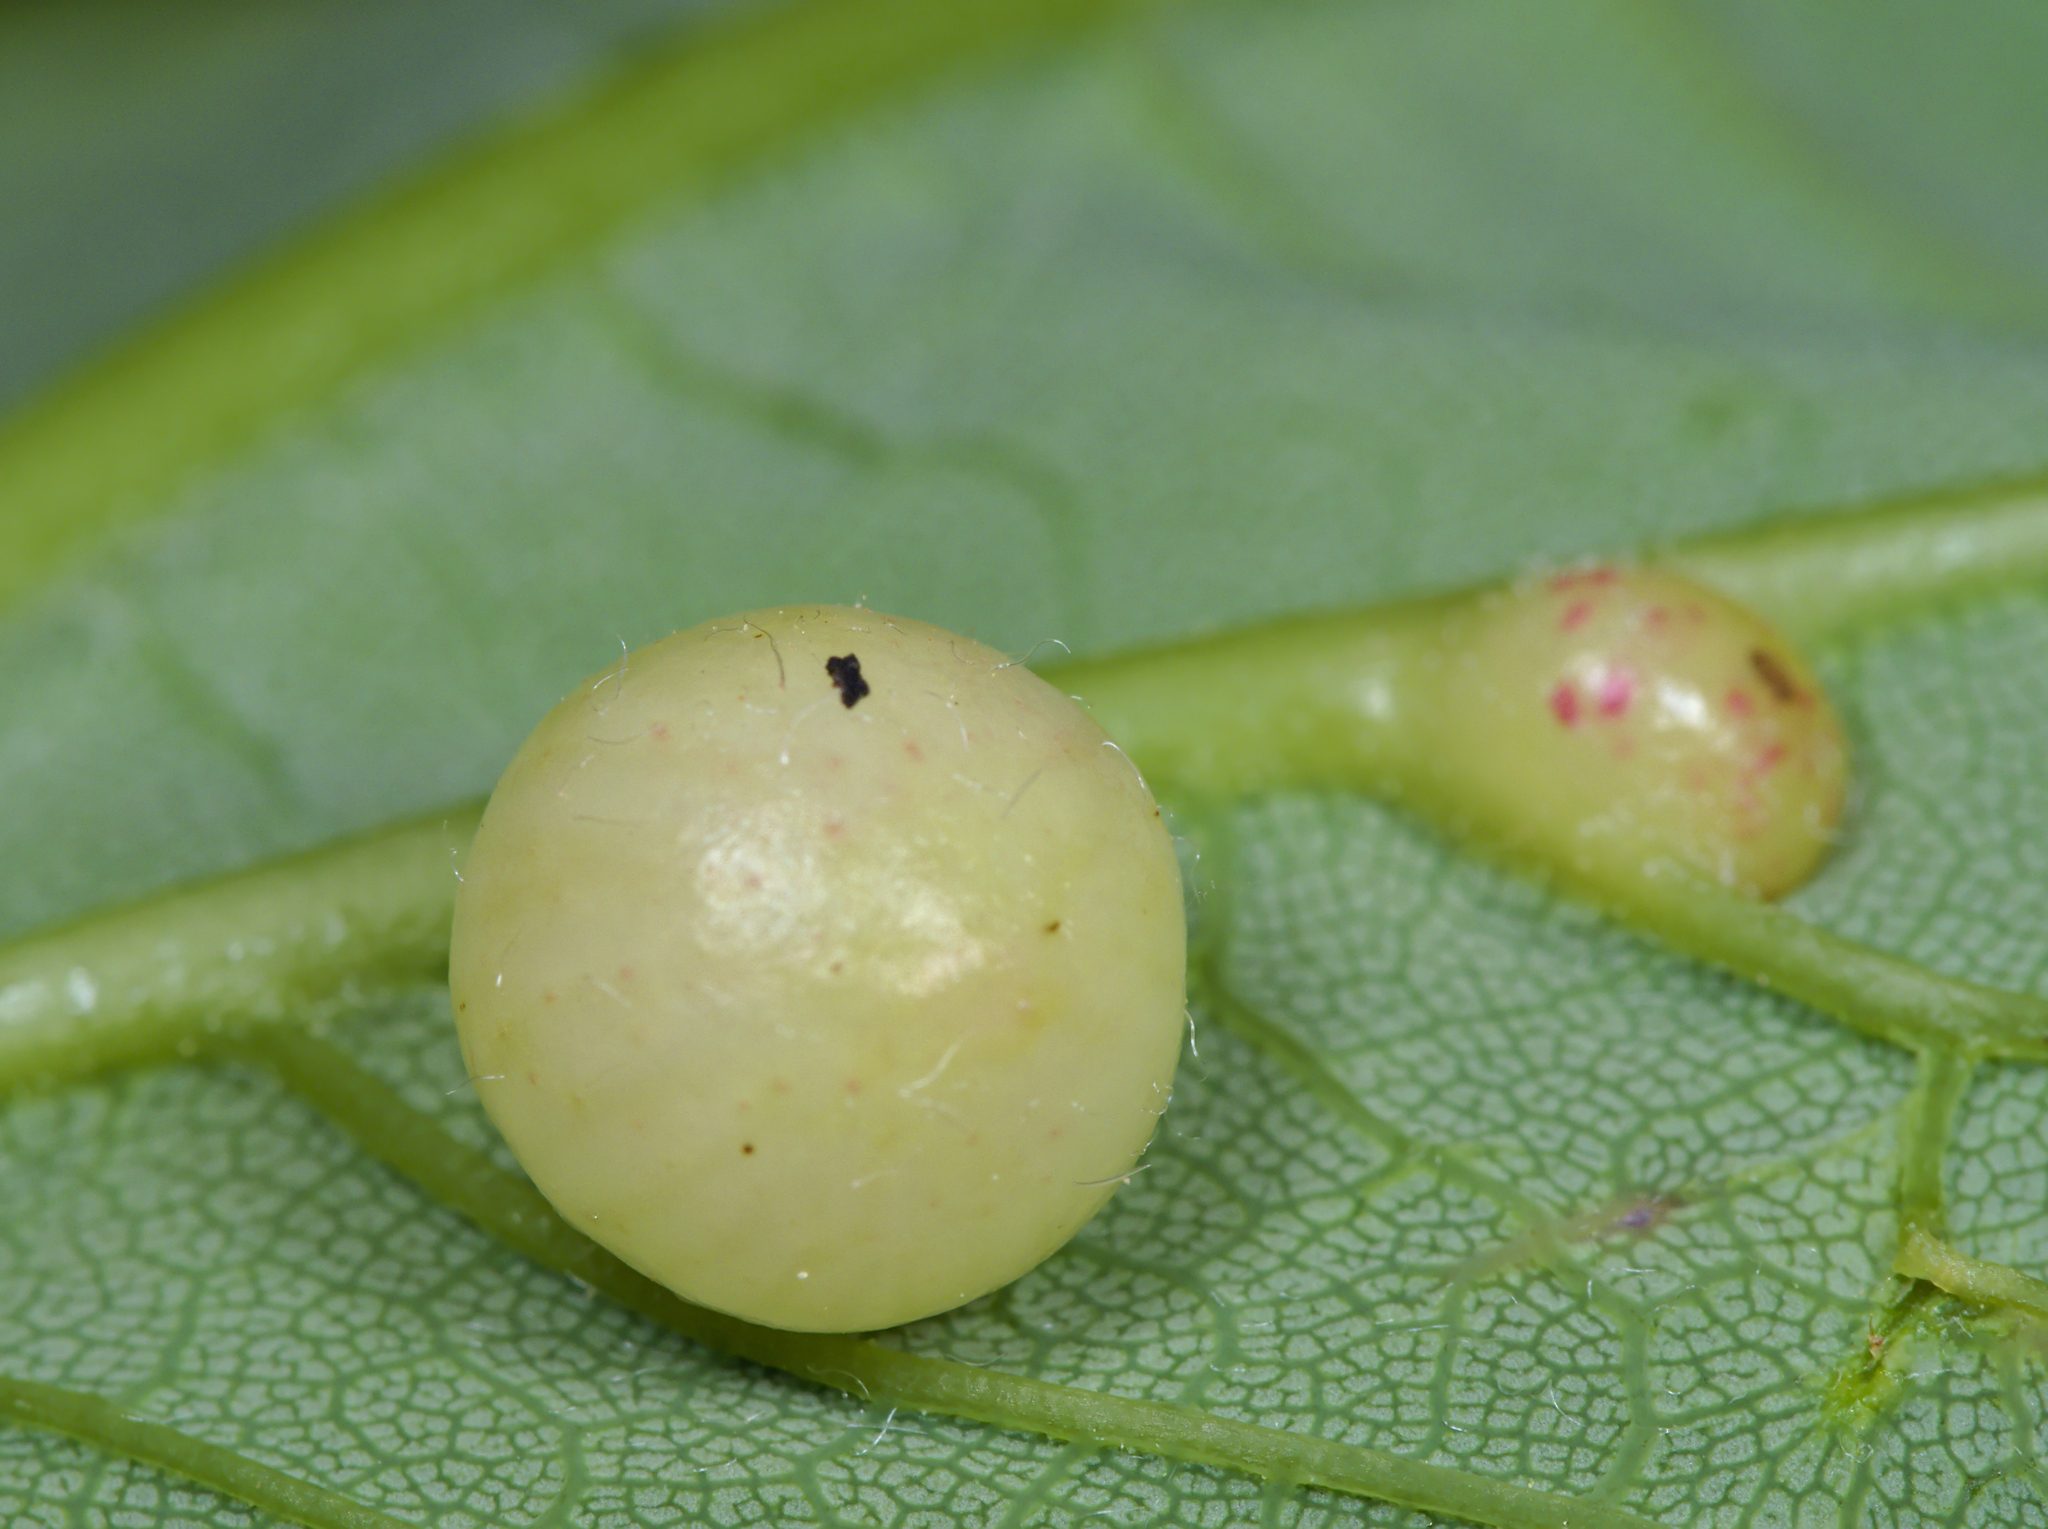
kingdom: Animalia
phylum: Arthropoda
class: Insecta
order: Hymenoptera
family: Cynipidae
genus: Pediaspis
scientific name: Pediaspis aceris
